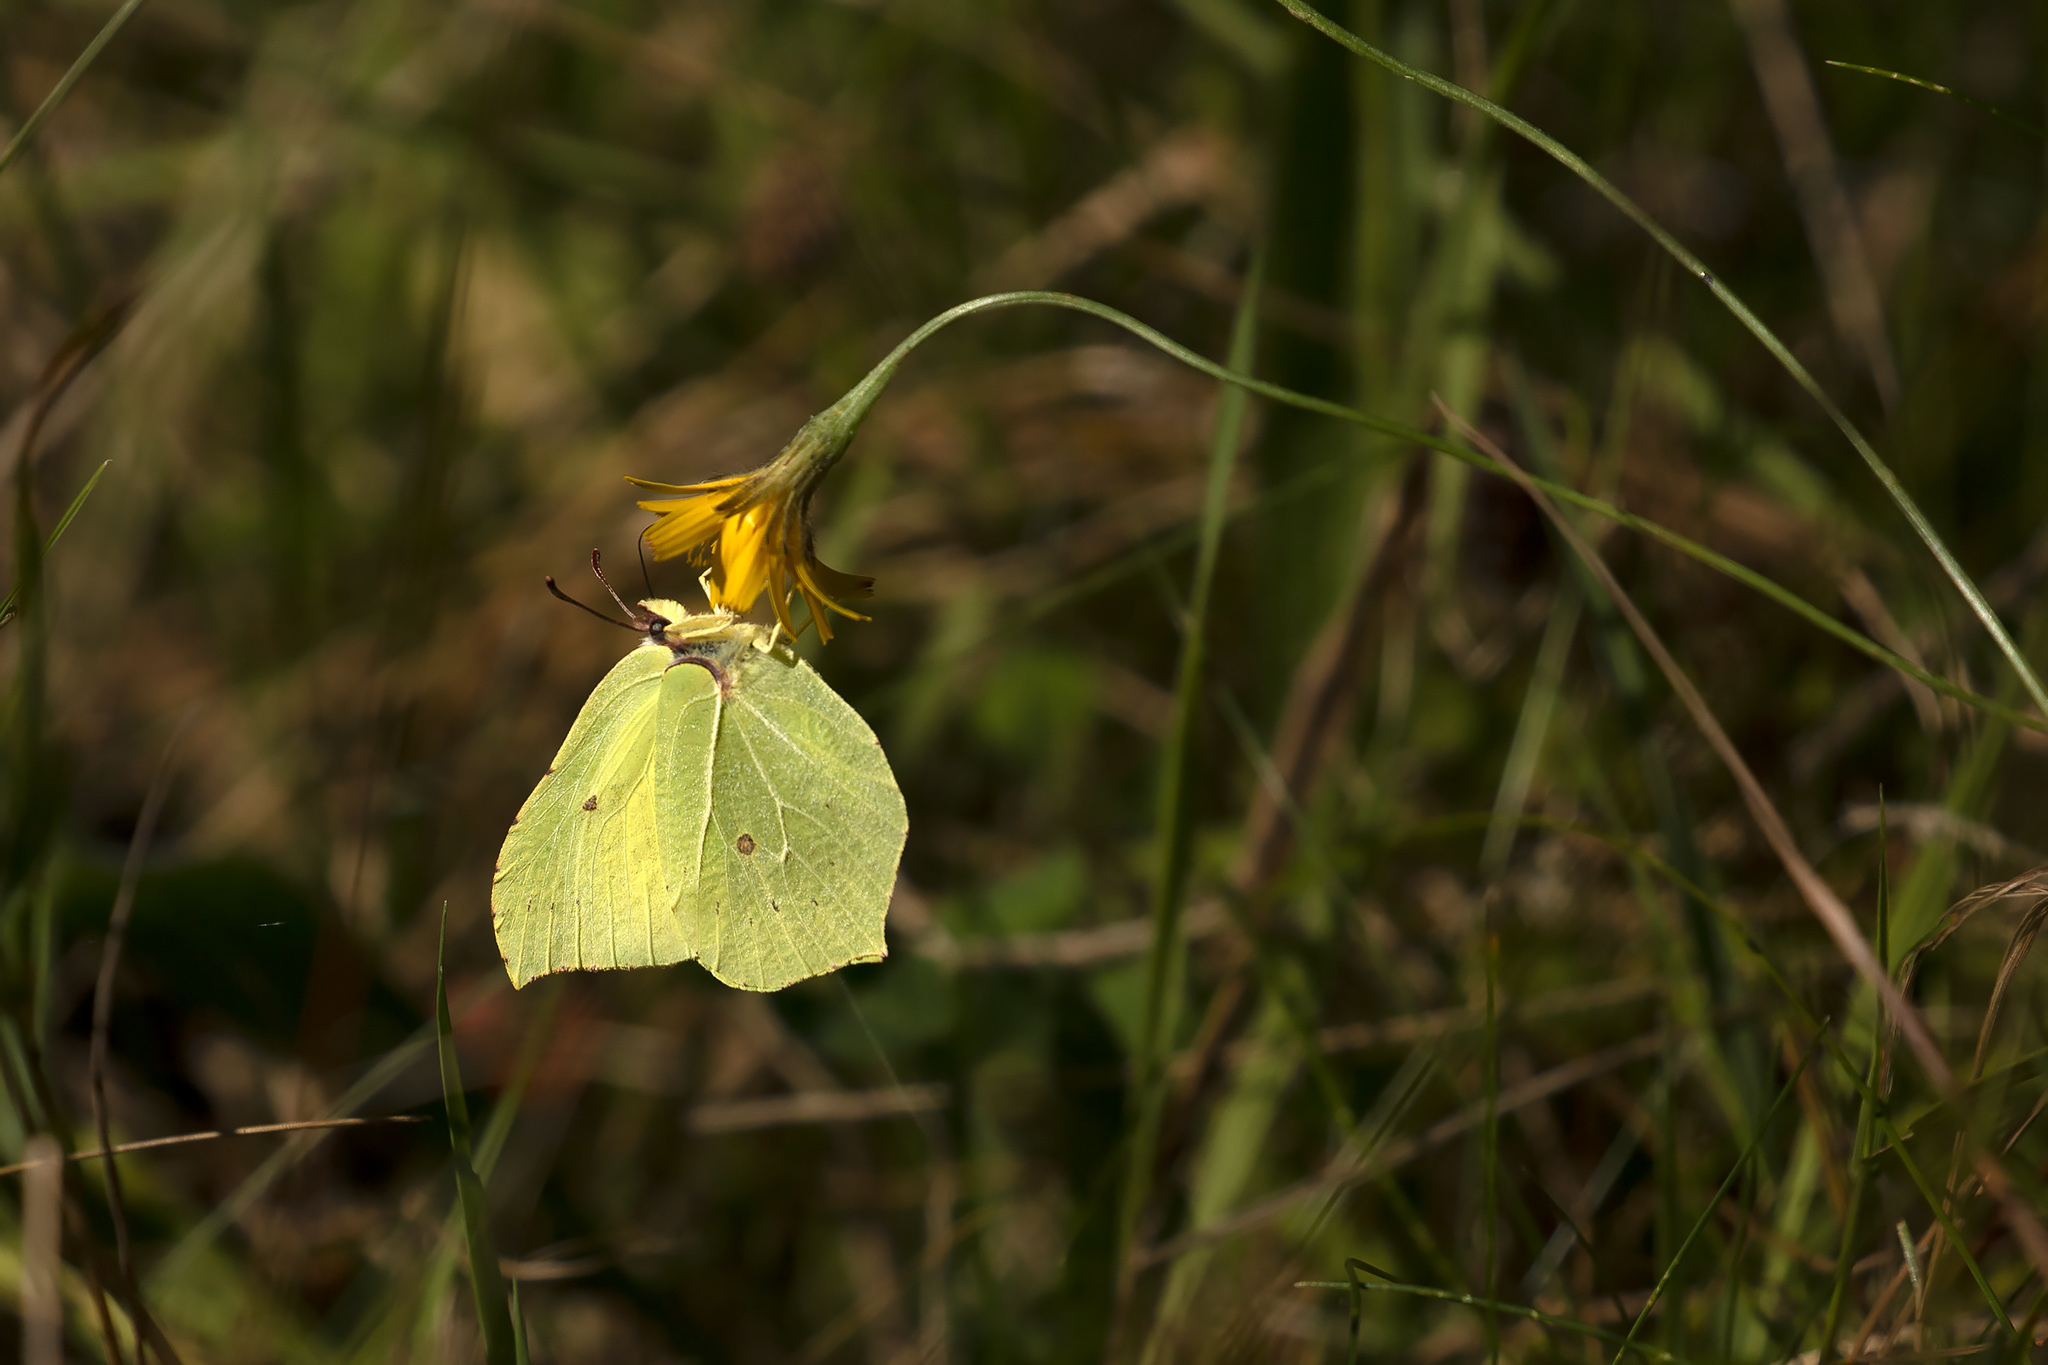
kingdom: Animalia
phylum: Arthropoda
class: Insecta
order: Lepidoptera
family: Pieridae
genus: Gonepteryx
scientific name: Gonepteryx rhamni
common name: Brimstone
